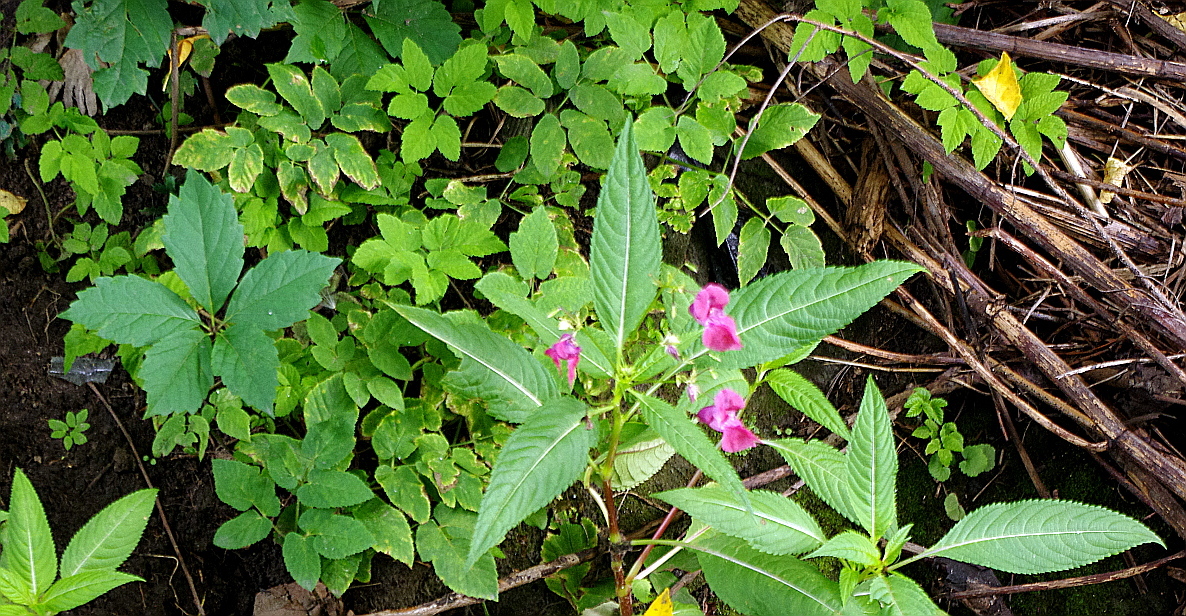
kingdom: Plantae
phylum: Tracheophyta
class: Magnoliopsida
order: Ericales
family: Balsaminaceae
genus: Impatiens
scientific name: Impatiens glandulifera
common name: Himalayan balsam
